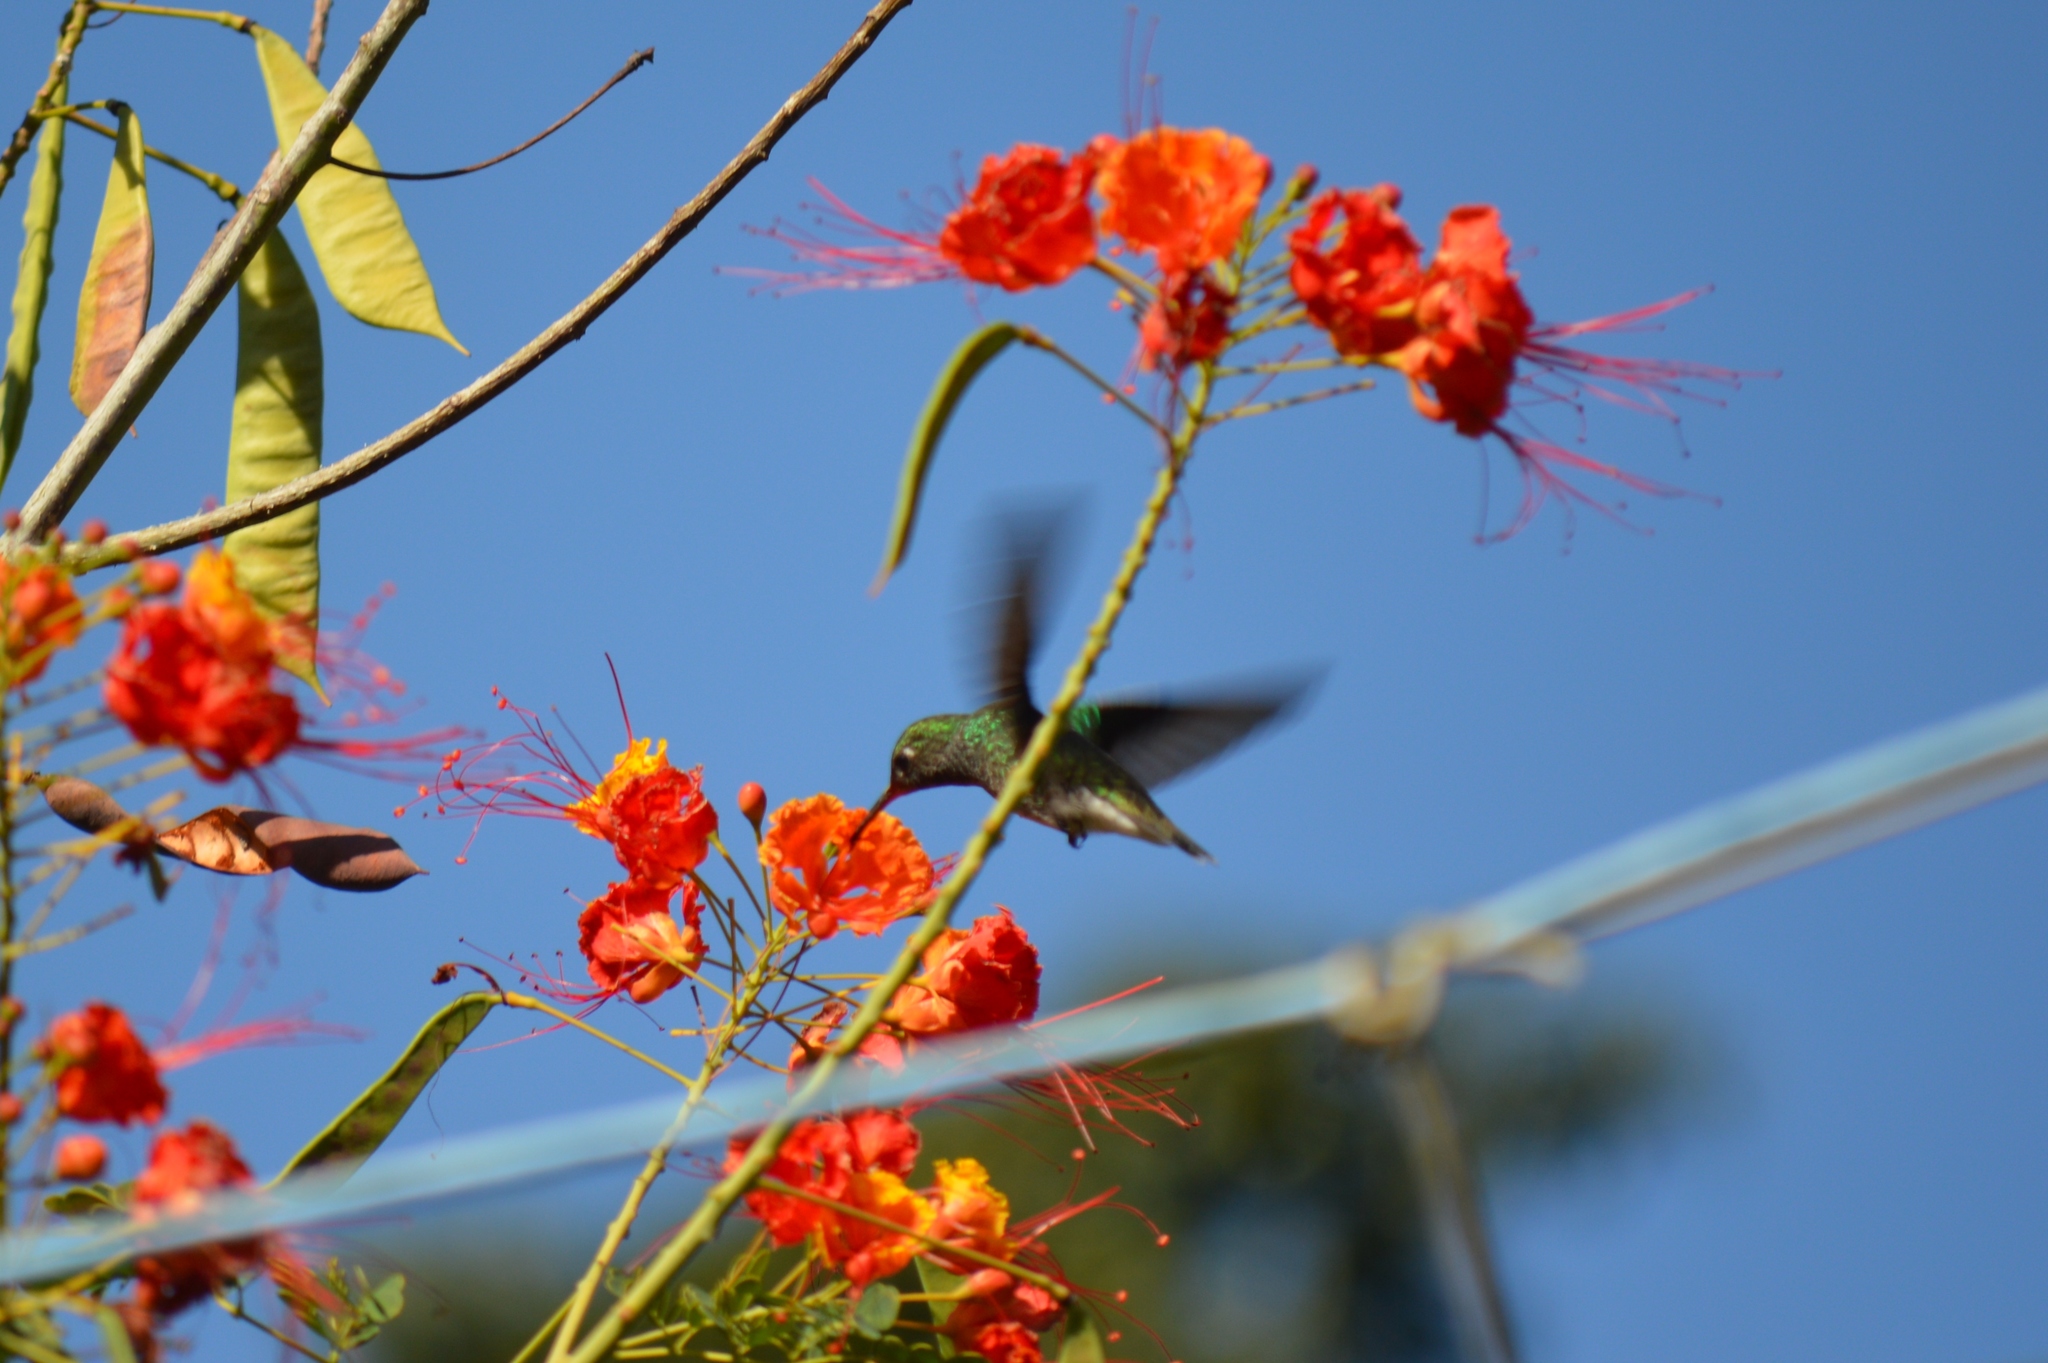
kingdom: Animalia
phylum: Chordata
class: Aves
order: Apodiformes
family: Trochilidae
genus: Chionomesa
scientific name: Chionomesa fimbriata
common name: Glittering-throated emerald
